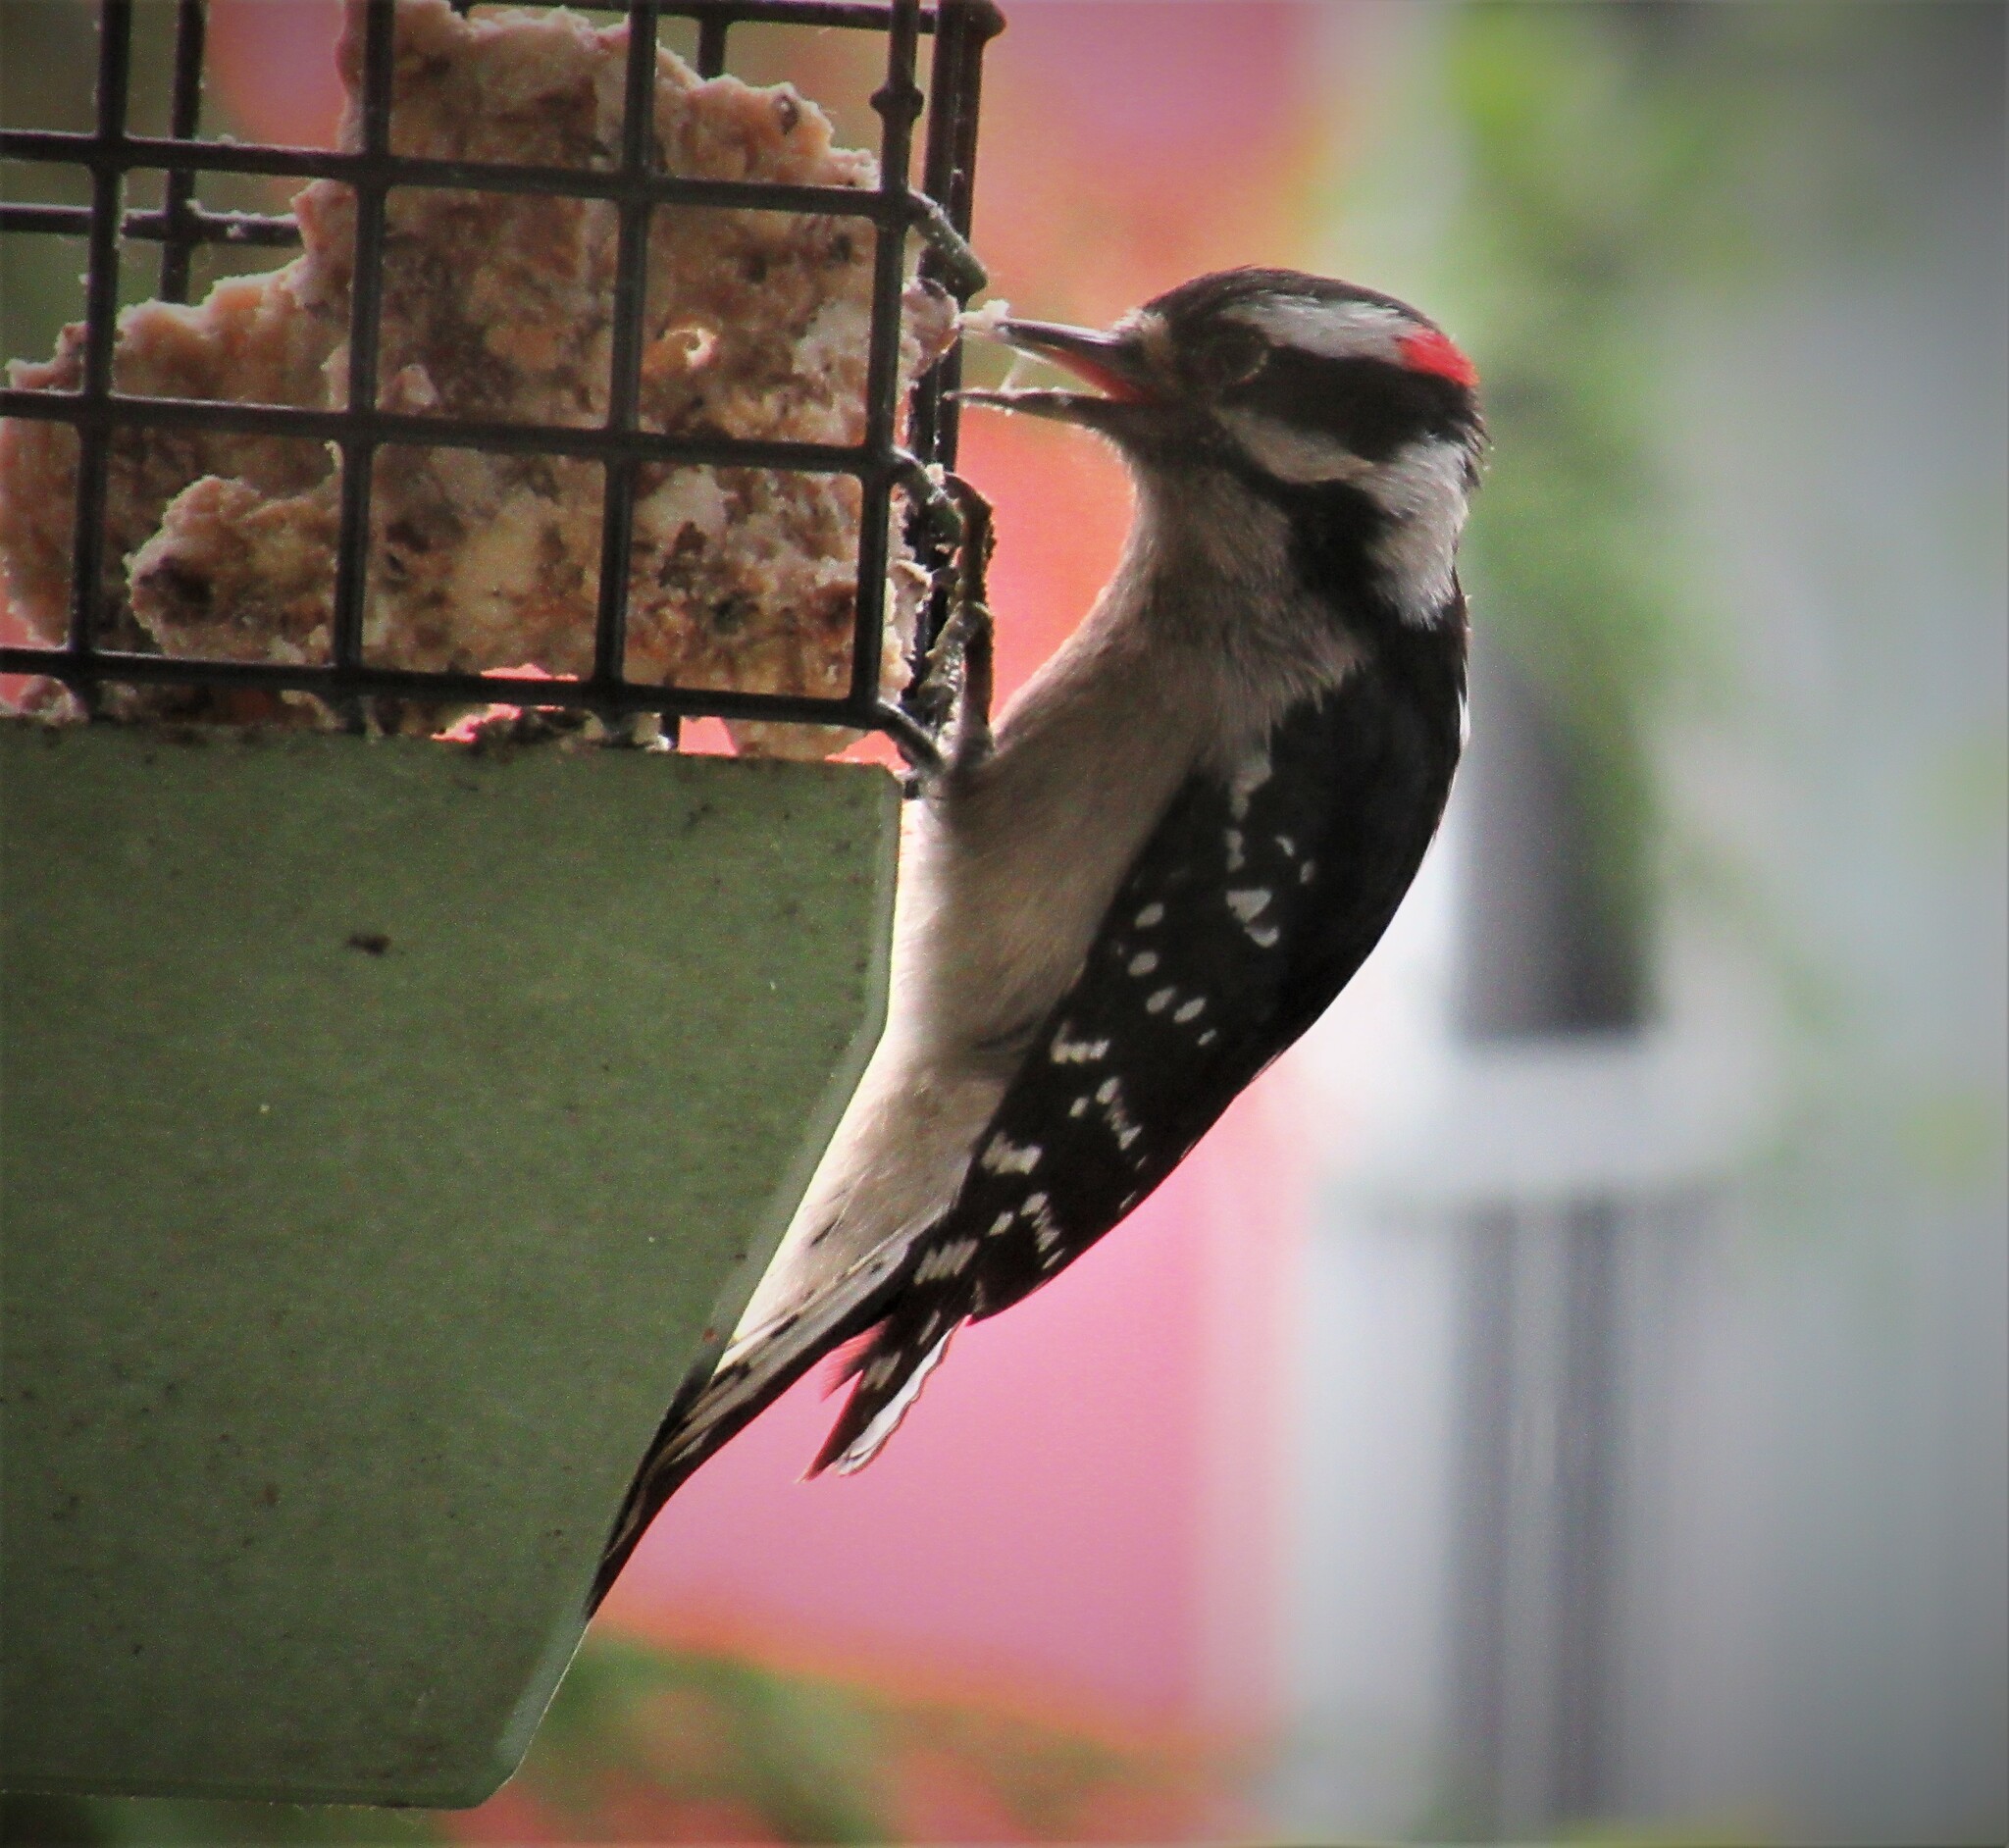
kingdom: Animalia
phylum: Chordata
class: Aves
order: Piciformes
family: Picidae
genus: Dryobates
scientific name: Dryobates pubescens
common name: Downy woodpecker
